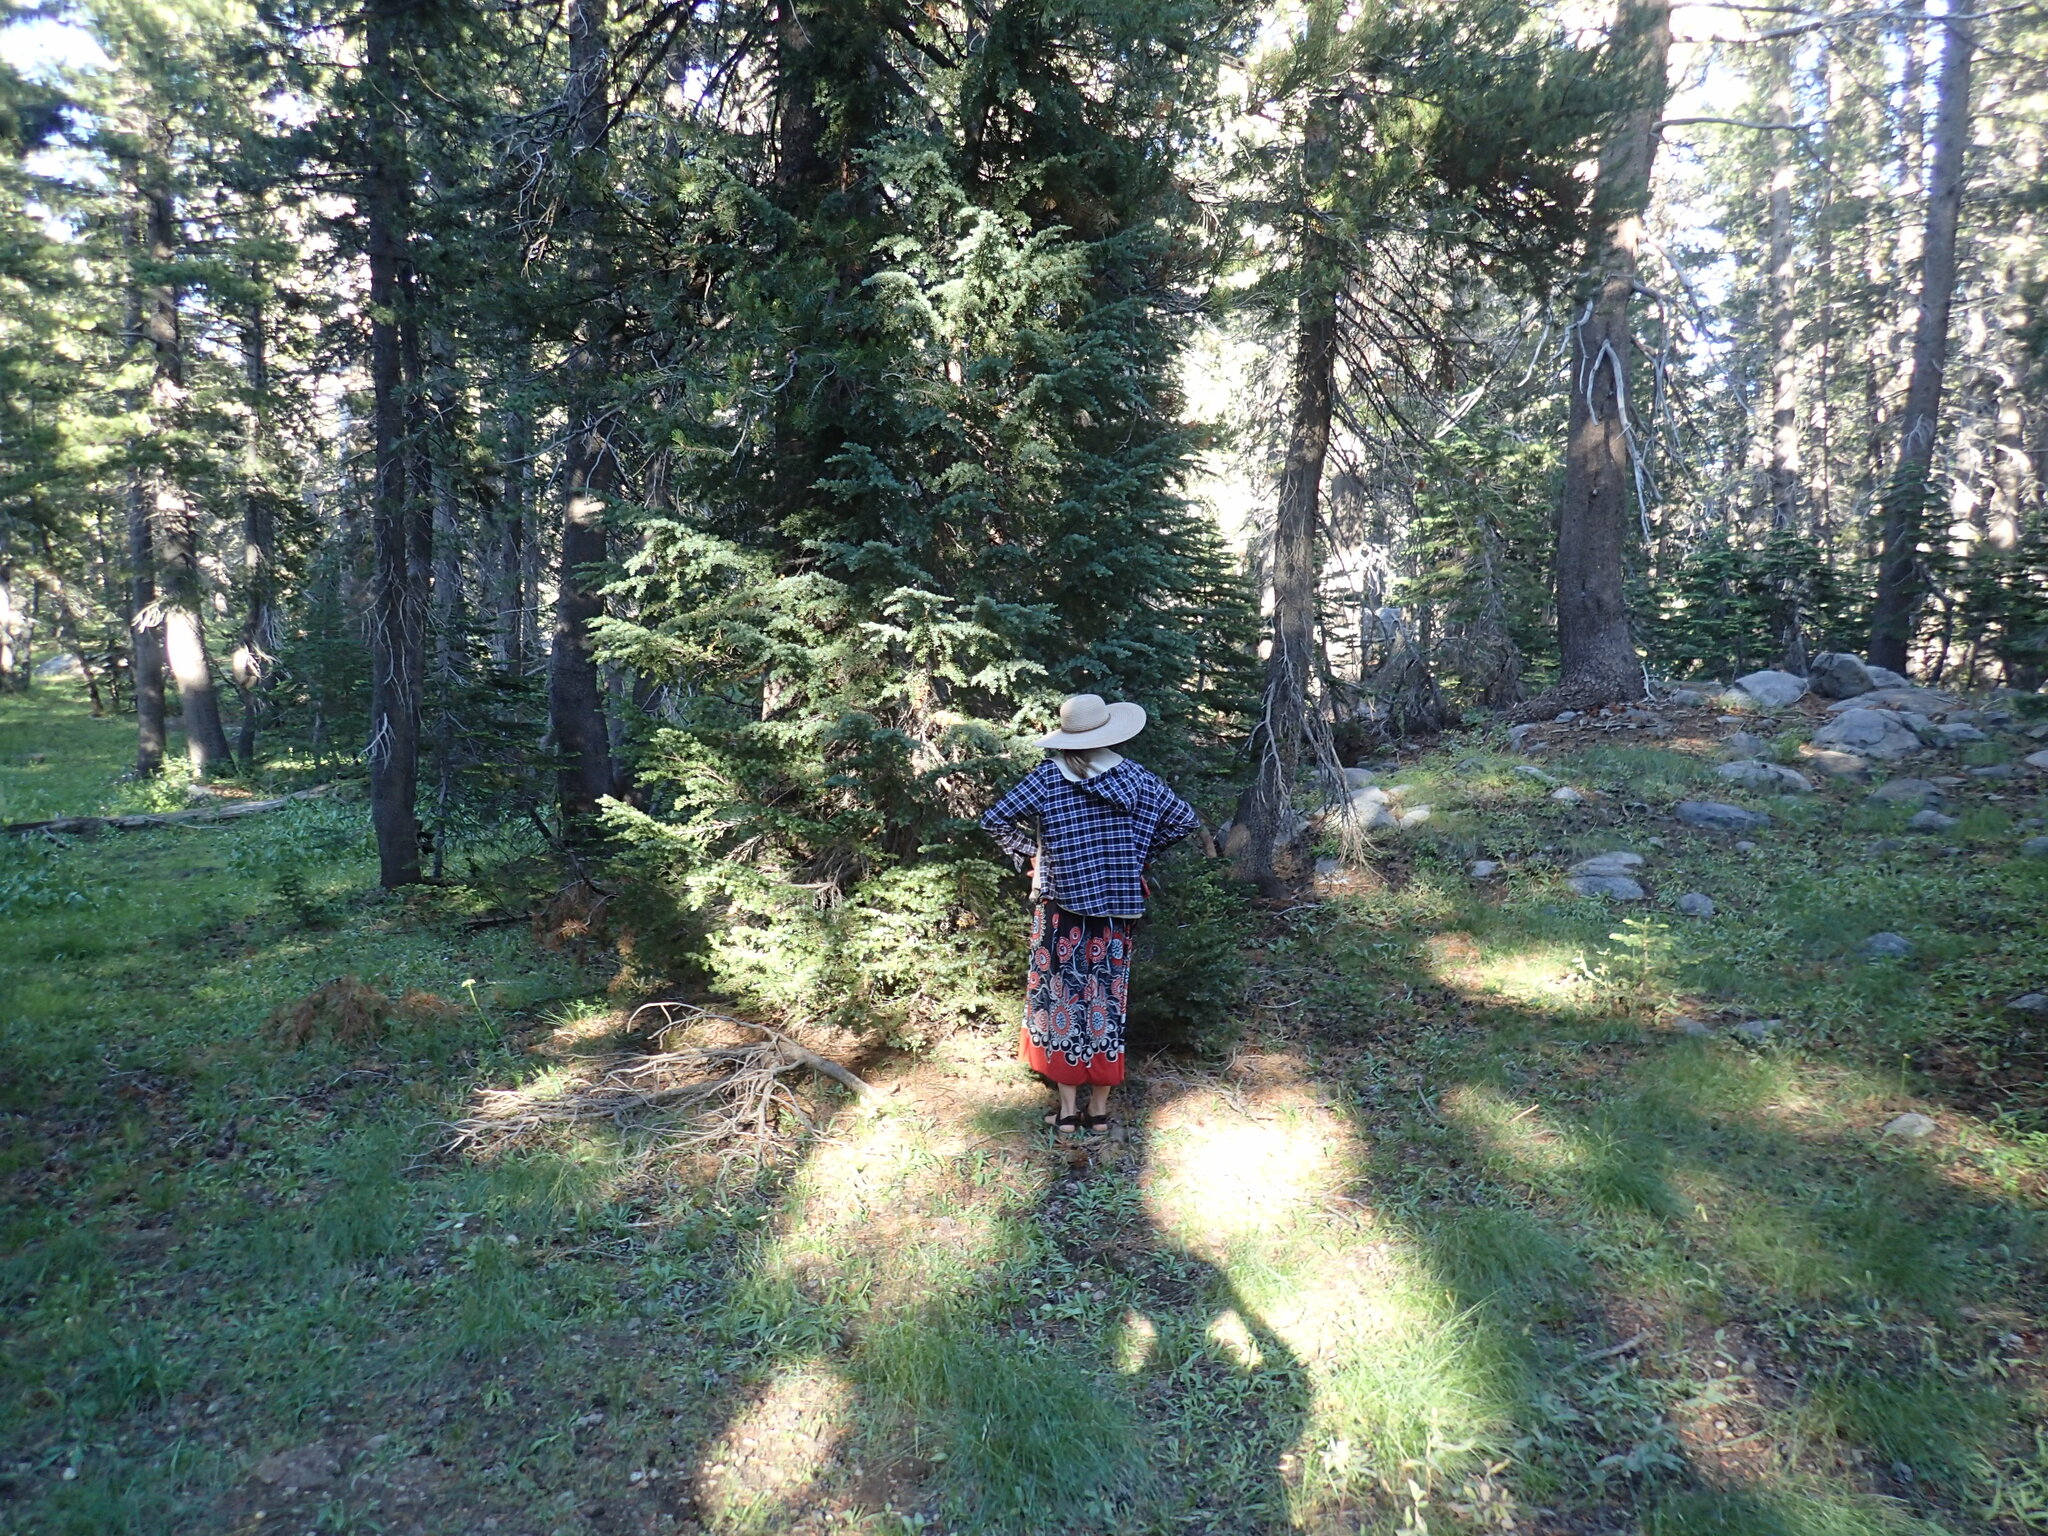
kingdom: Plantae
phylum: Tracheophyta
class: Pinopsida
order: Pinales
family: Pinaceae
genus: Tsuga
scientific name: Tsuga mertensiana
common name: Mountain hemlock
